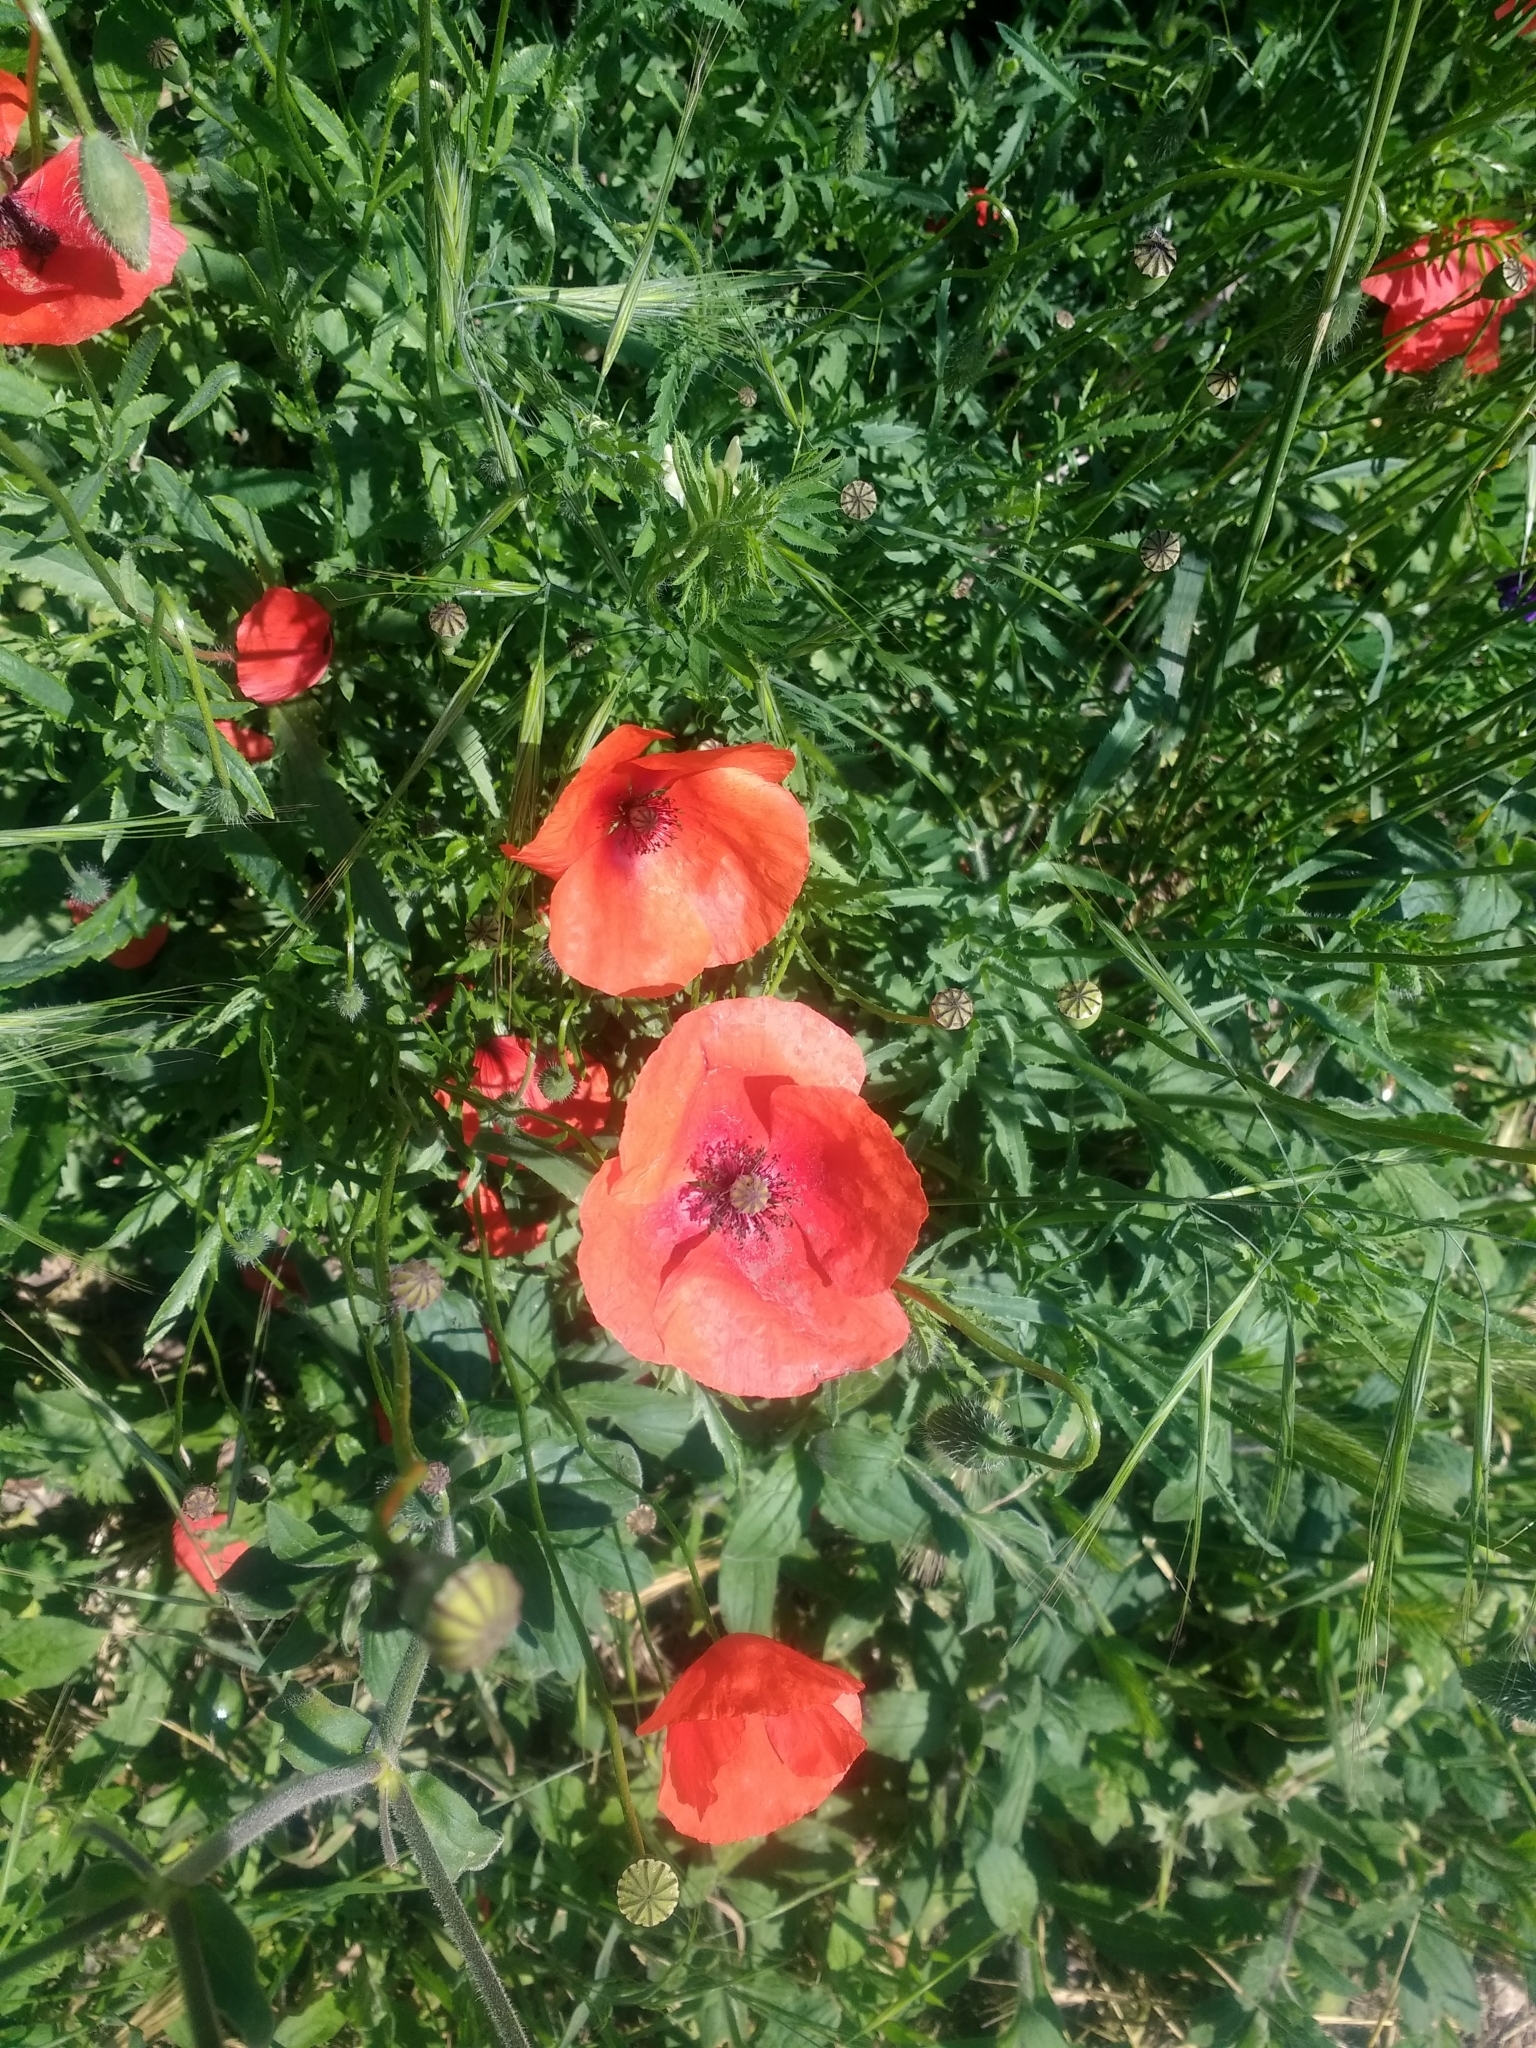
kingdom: Plantae
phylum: Tracheophyta
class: Magnoliopsida
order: Ranunculales
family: Papaveraceae
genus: Papaver
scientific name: Papaver rhoeas
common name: Corn poppy
